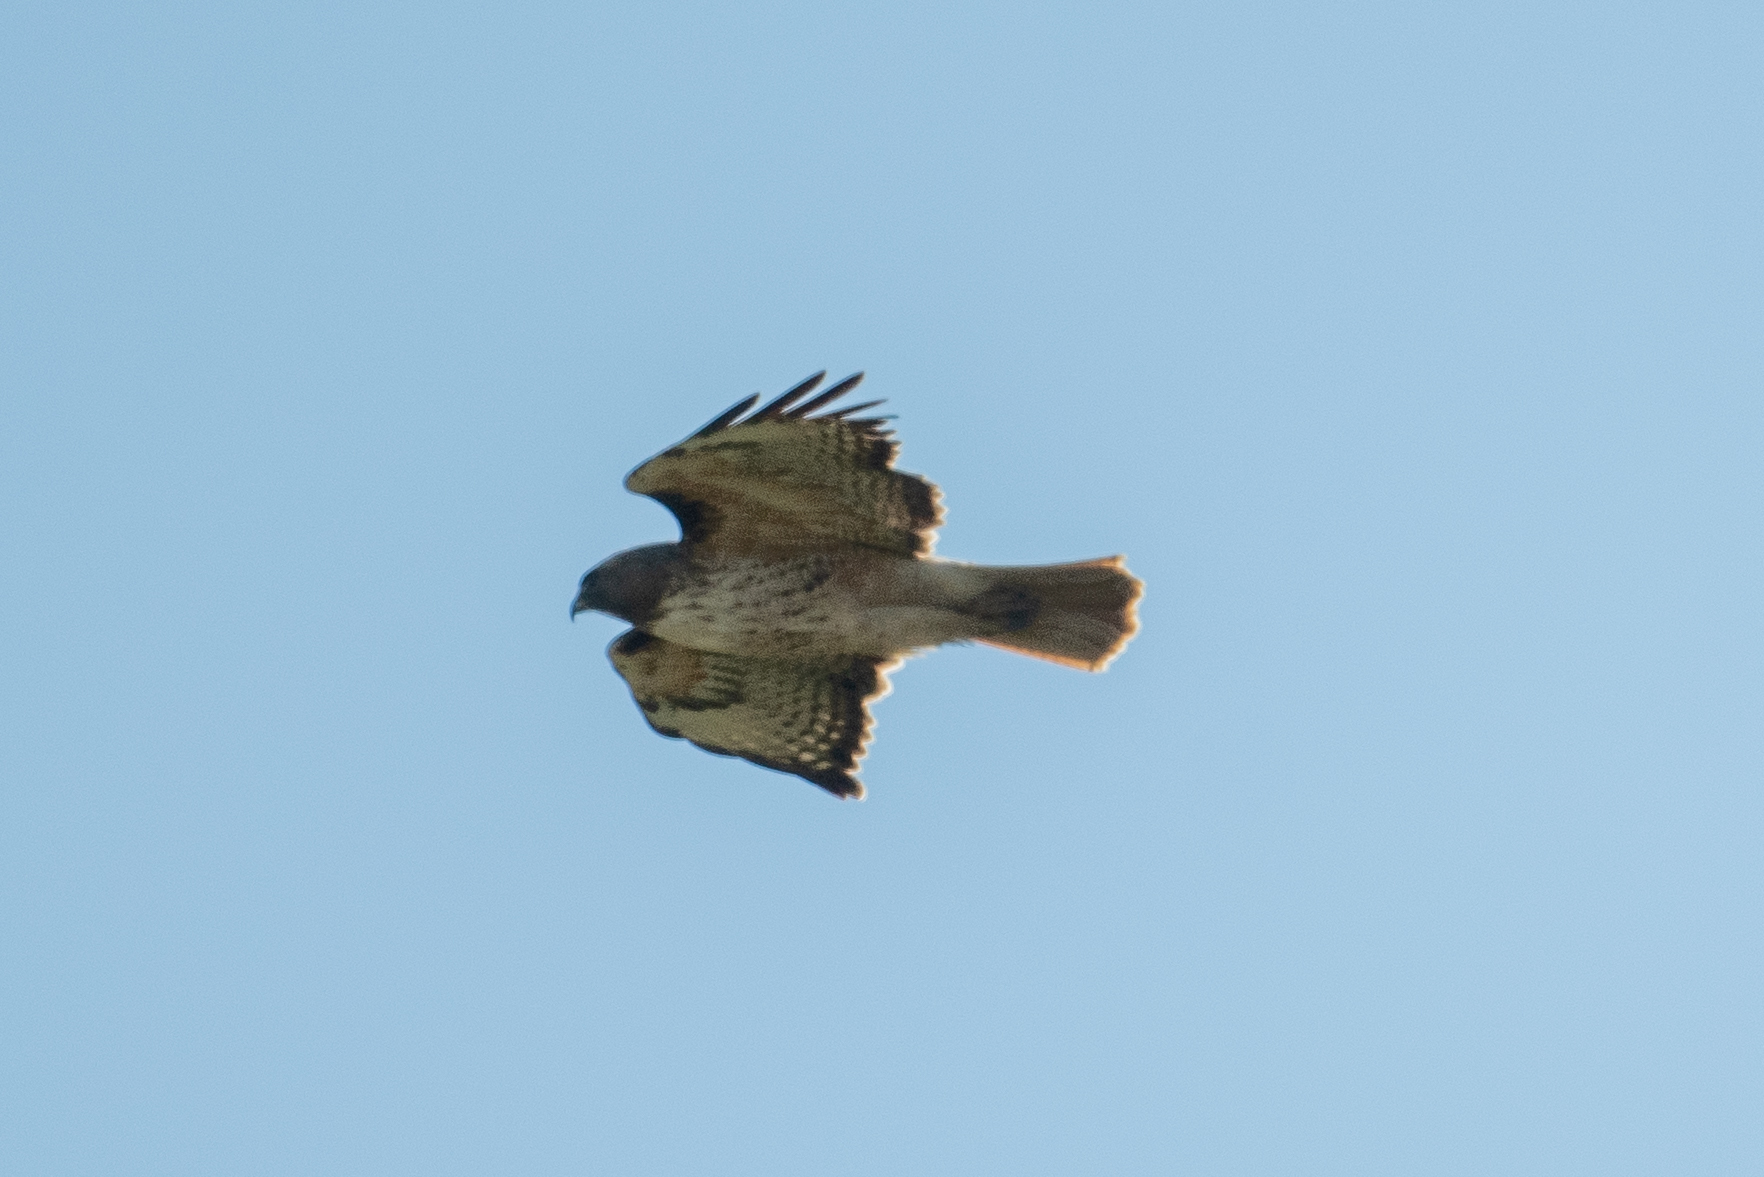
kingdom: Animalia
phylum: Chordata
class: Aves
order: Accipitriformes
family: Accipitridae
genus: Buteo
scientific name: Buteo jamaicensis
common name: Red-tailed hawk
